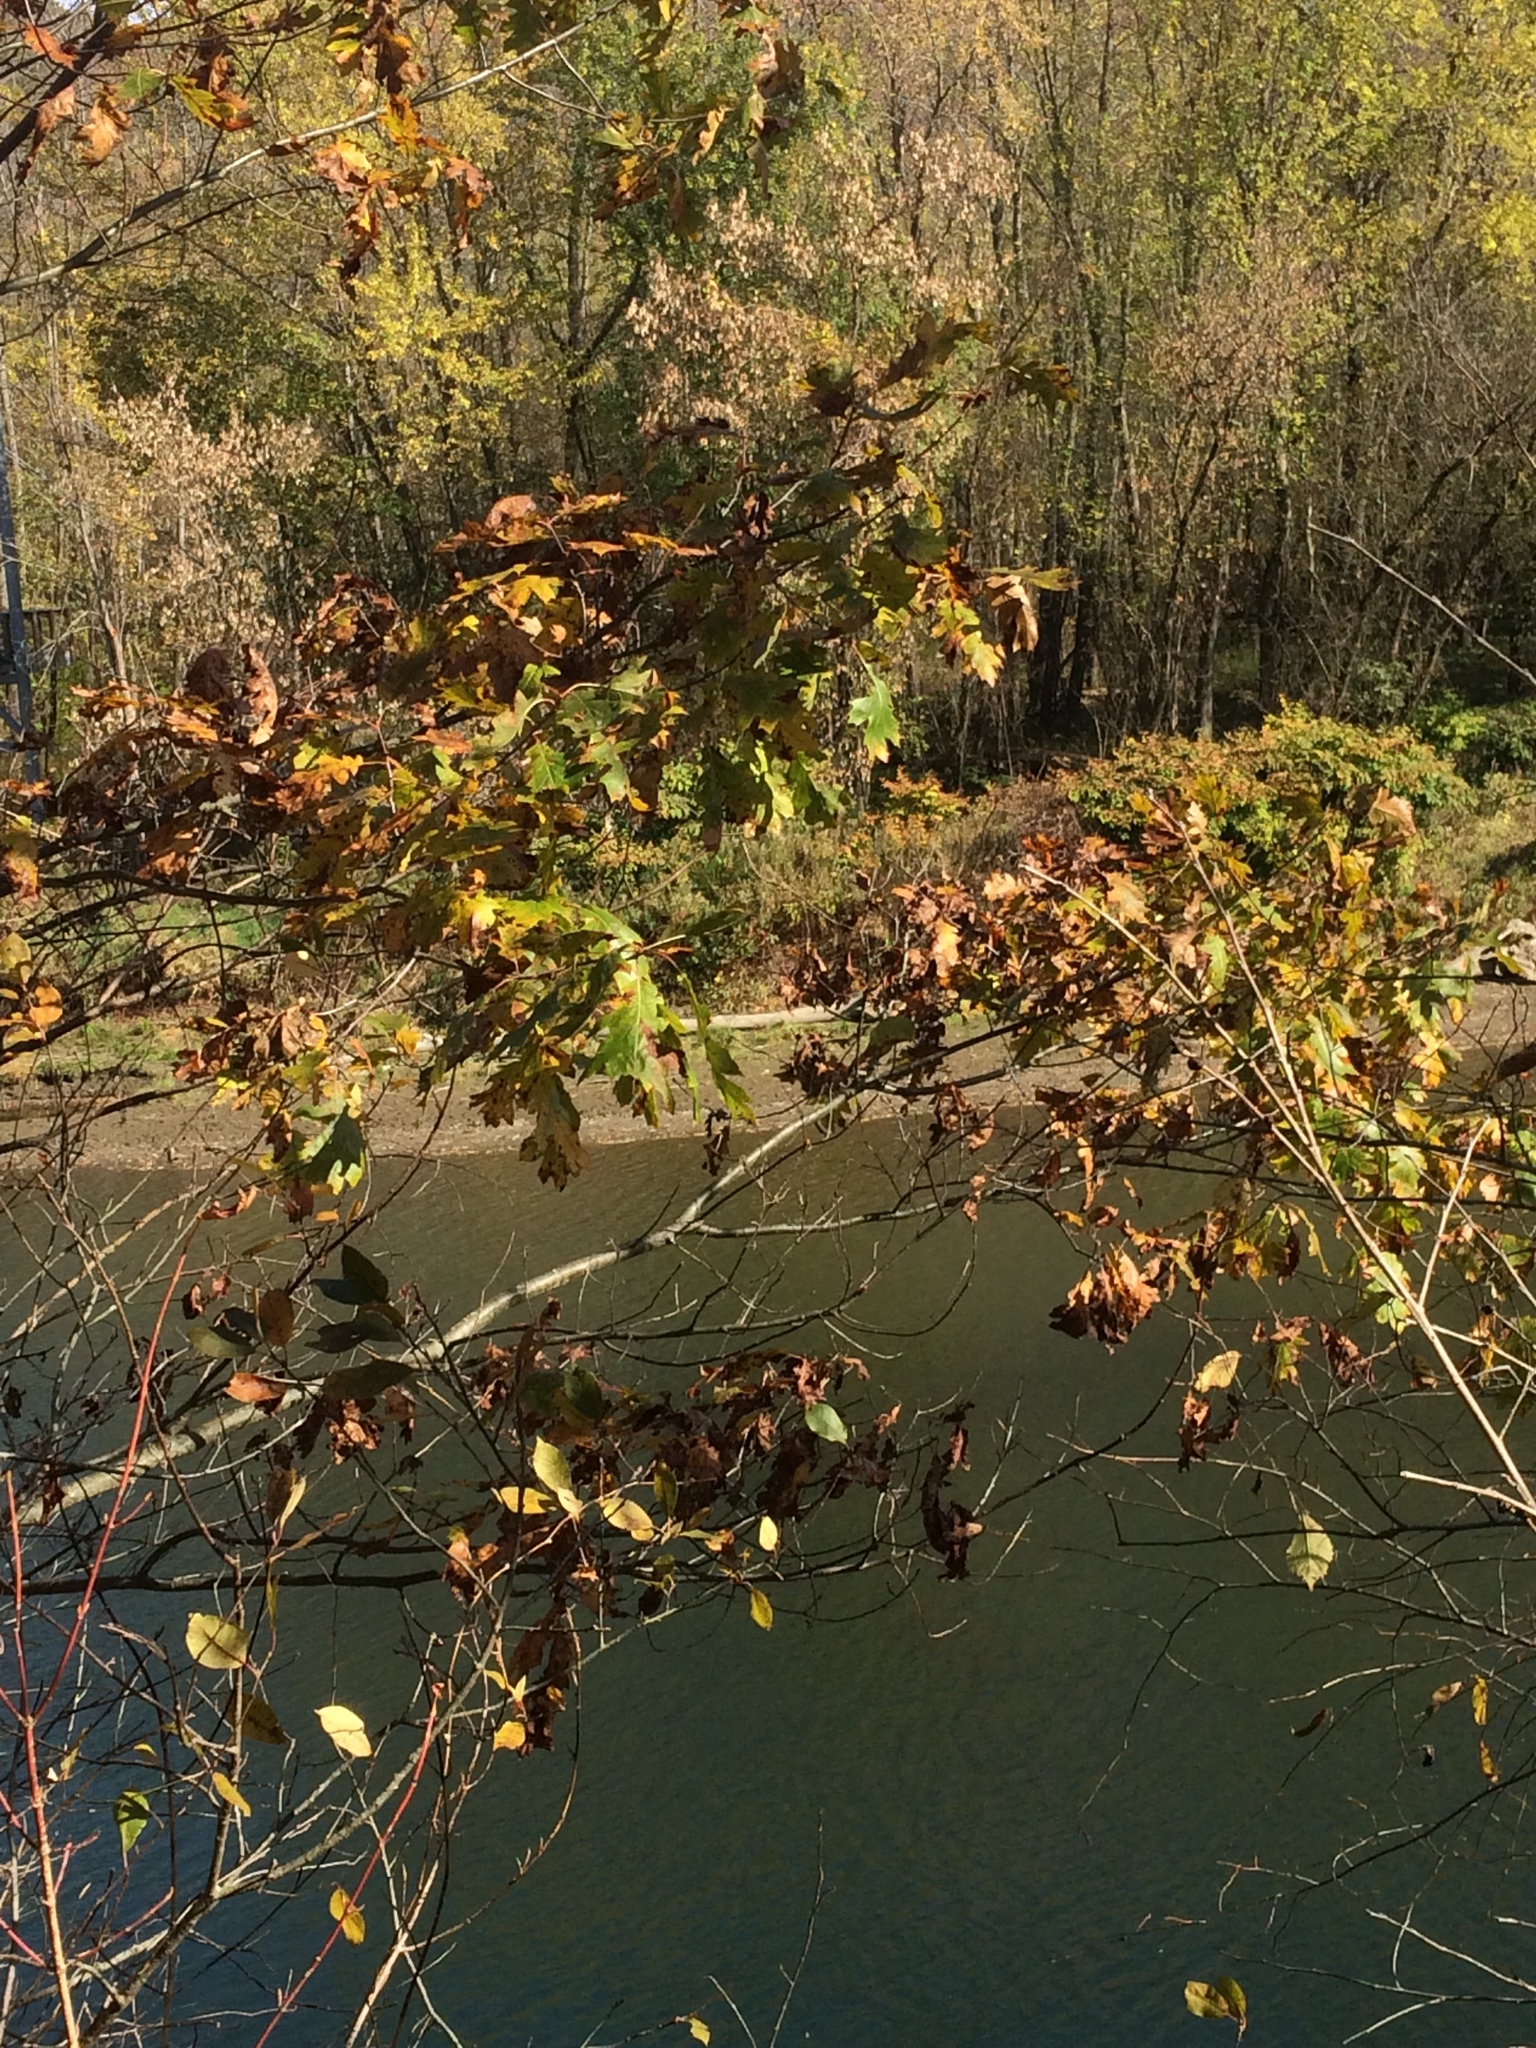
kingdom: Plantae
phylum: Tracheophyta
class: Magnoliopsida
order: Fagales
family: Fagaceae
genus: Quercus
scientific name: Quercus rubra
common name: Red oak
